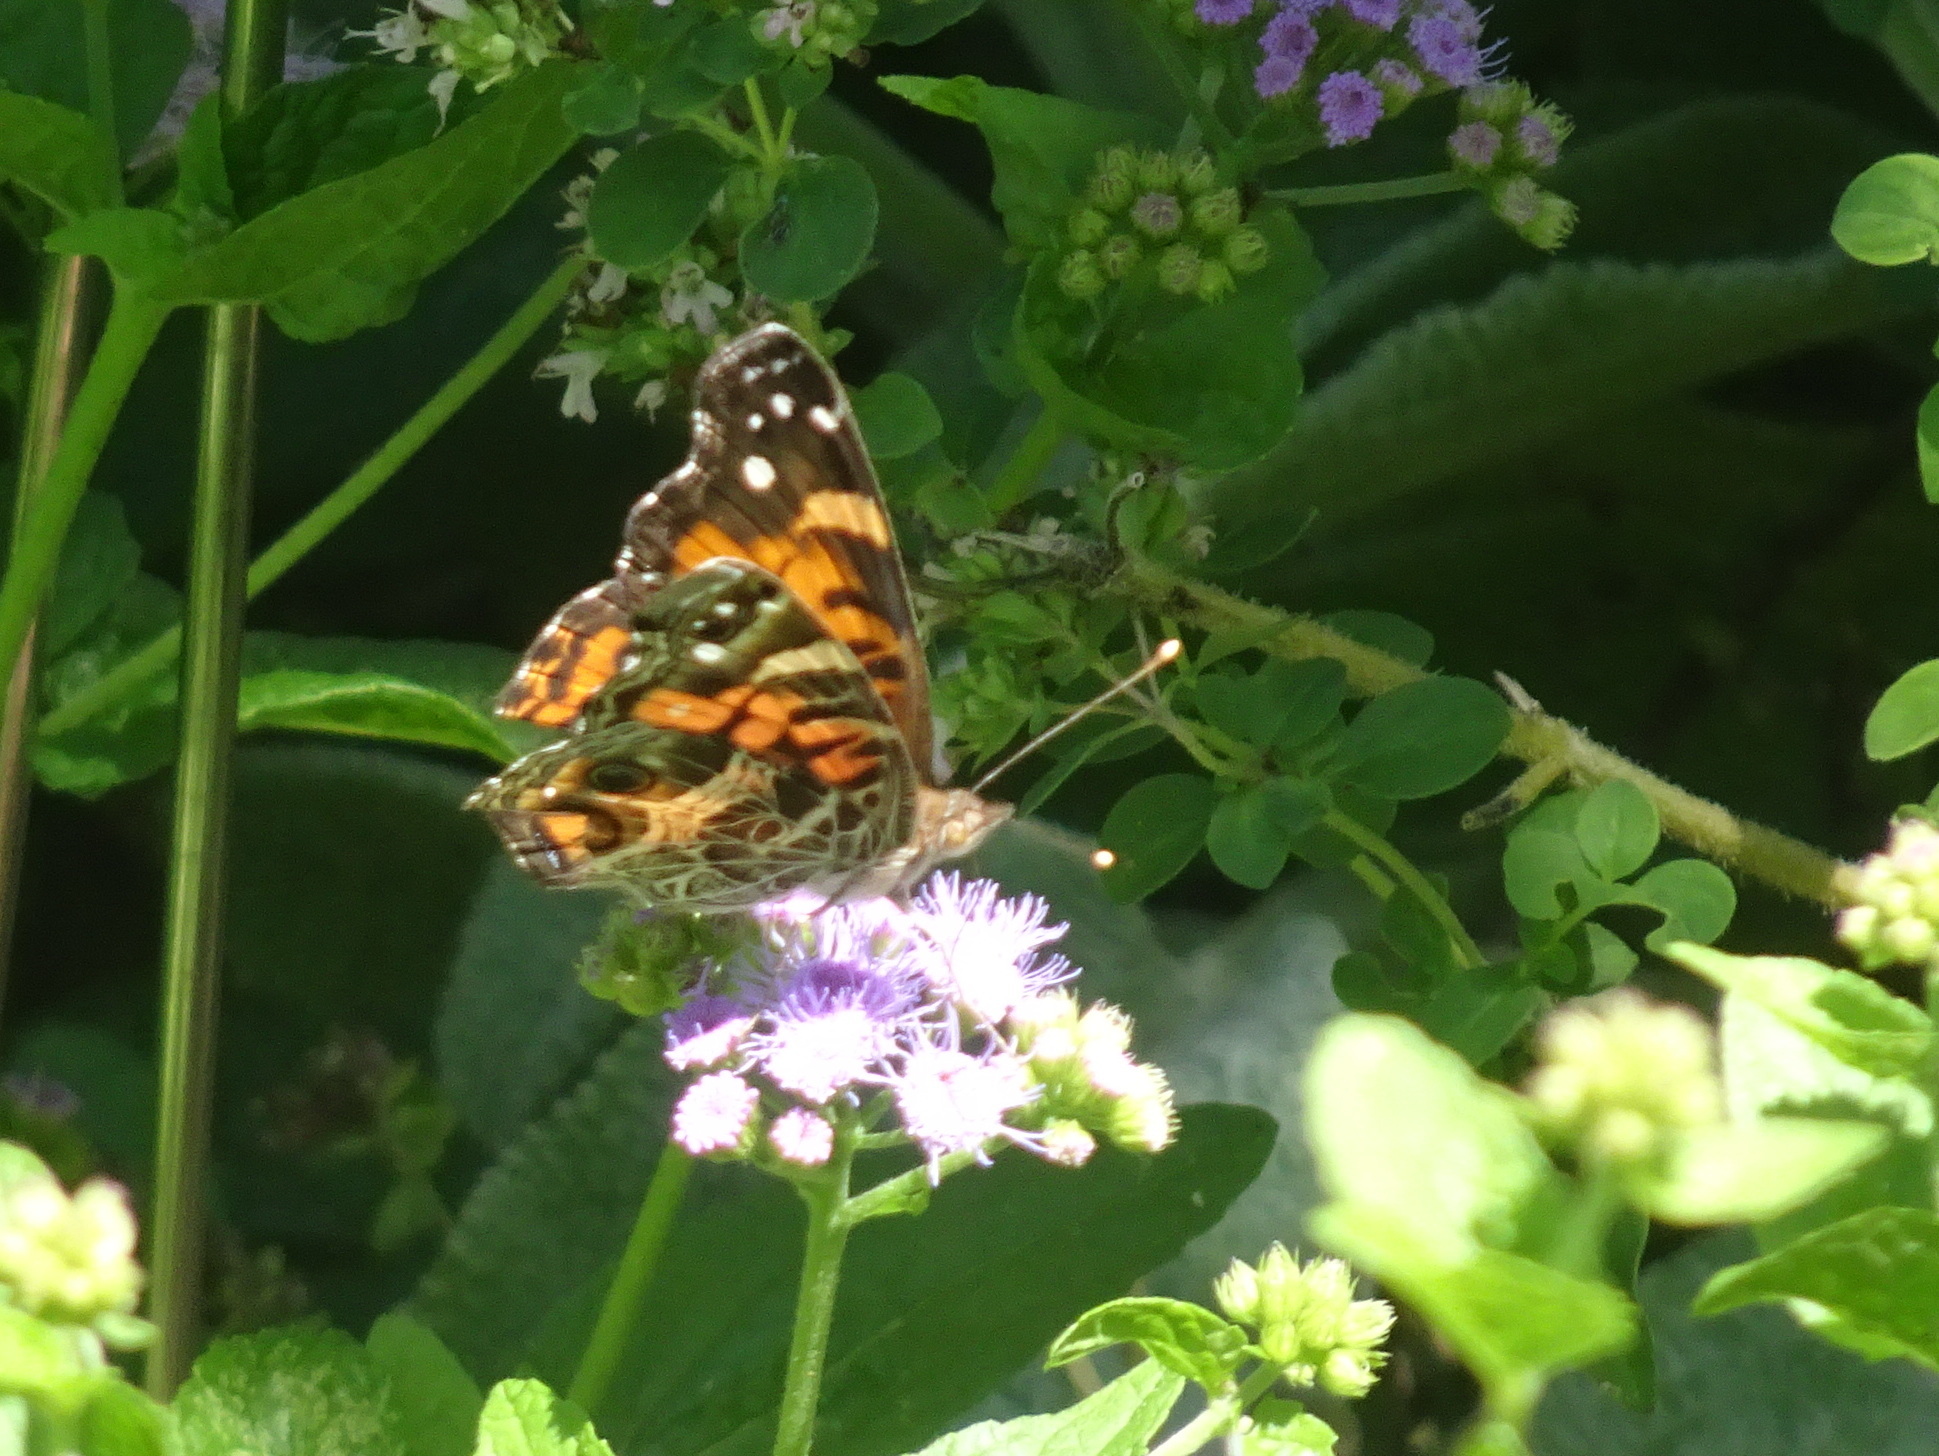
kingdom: Animalia
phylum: Arthropoda
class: Insecta
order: Lepidoptera
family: Nymphalidae
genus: Vanessa
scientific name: Vanessa virginiensis
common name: American lady
